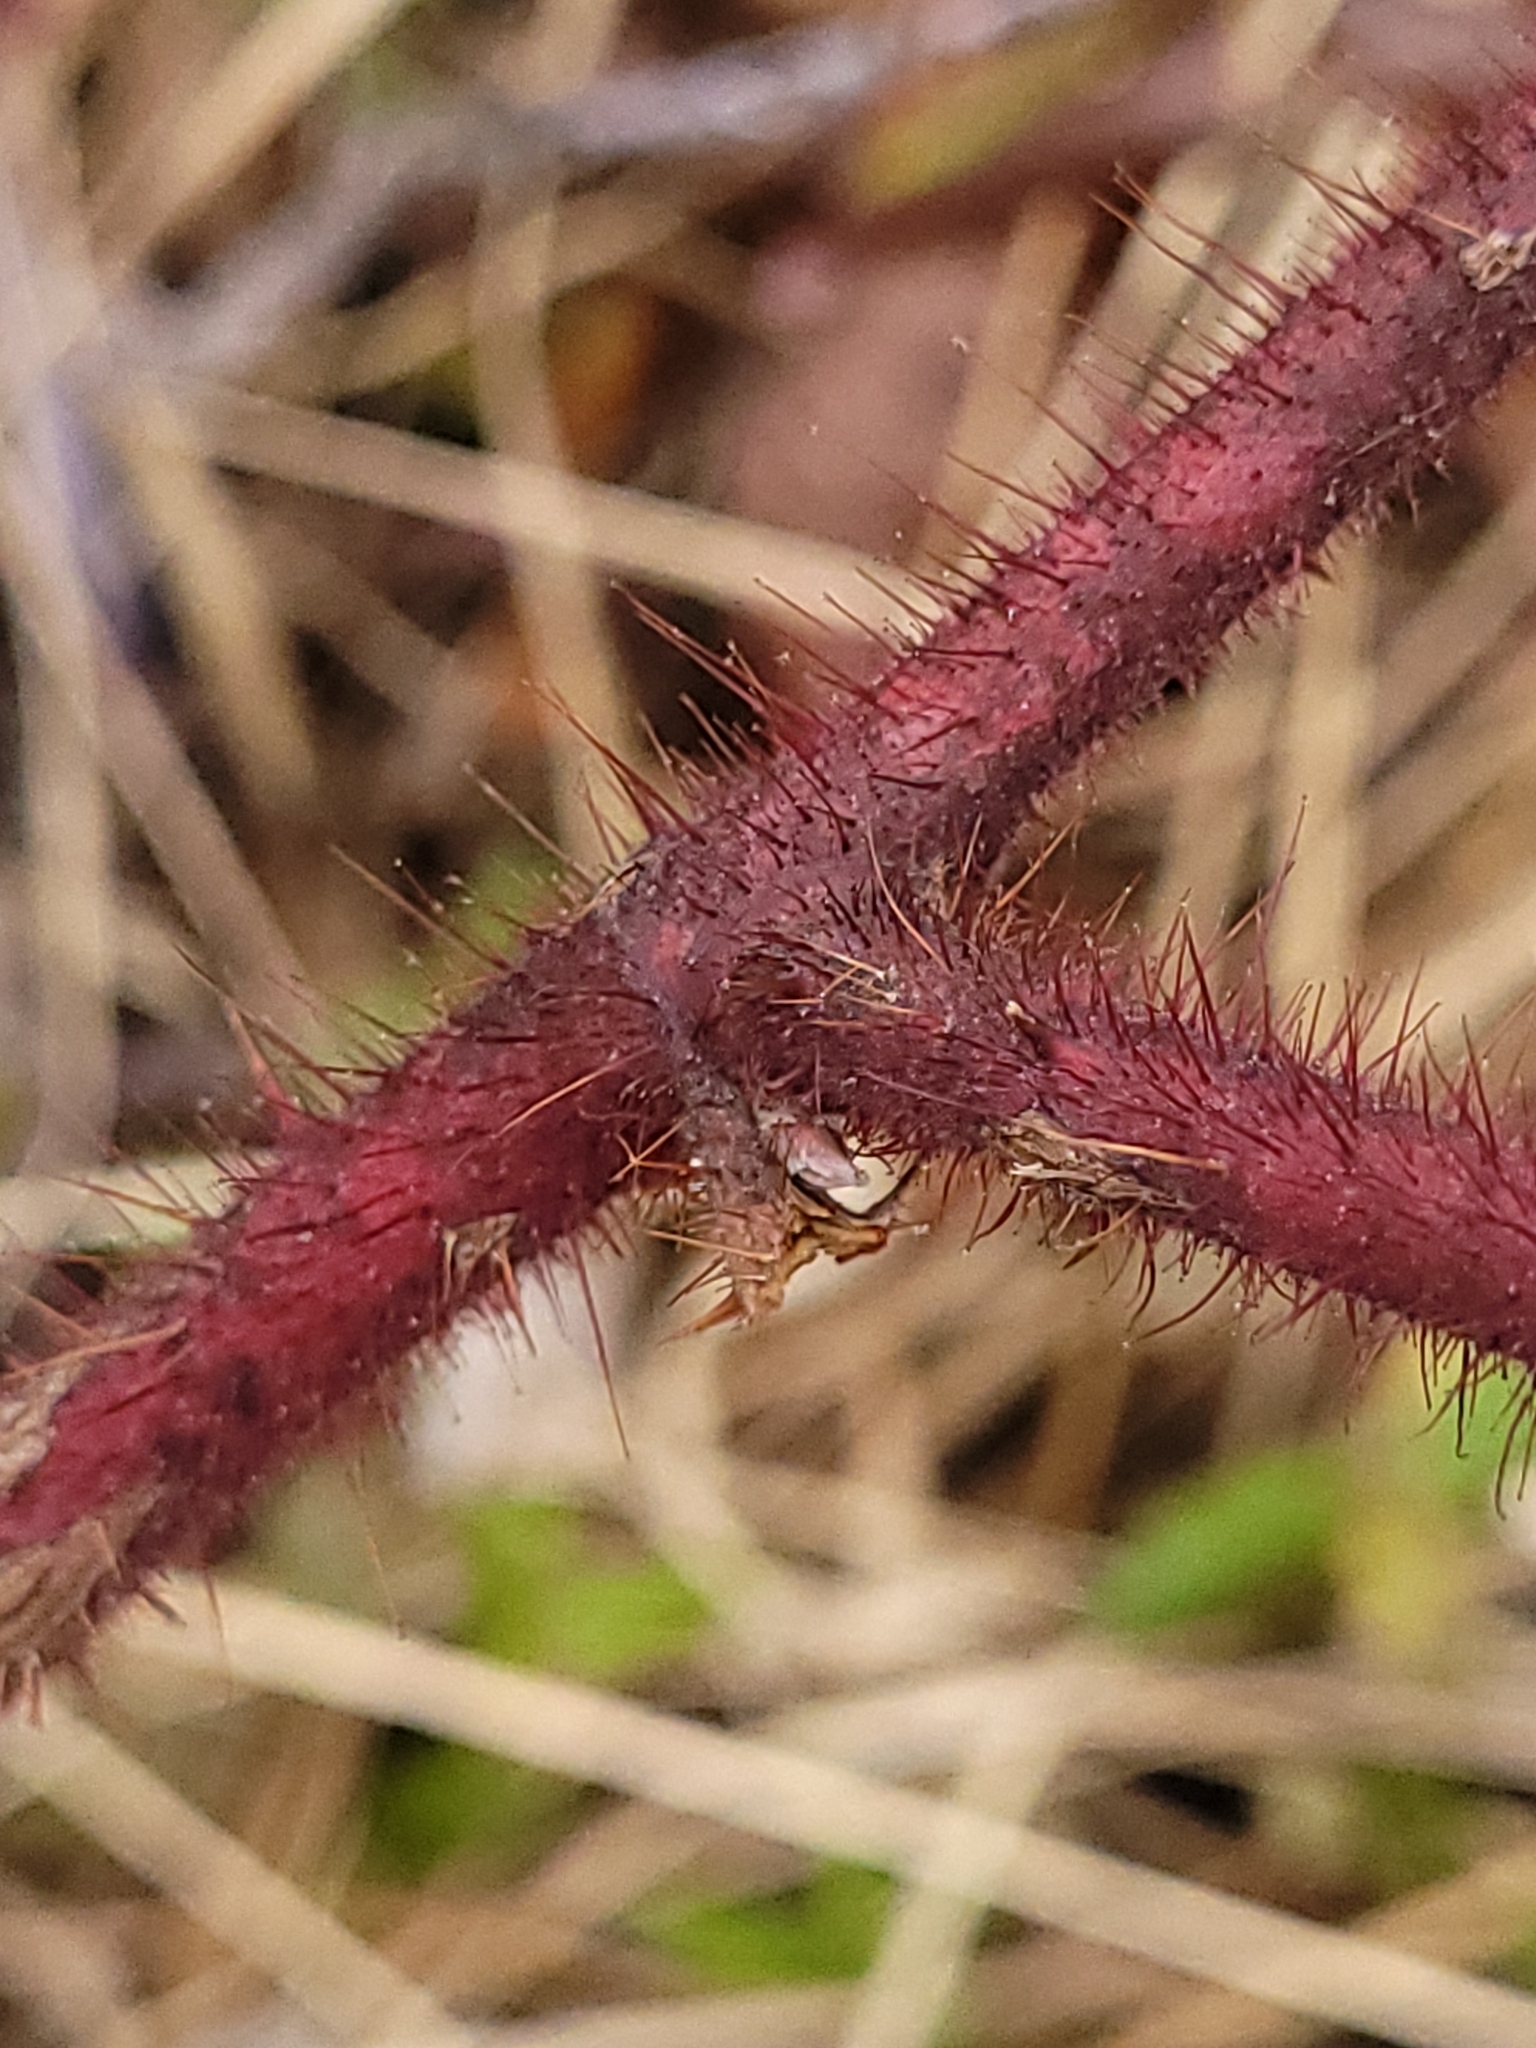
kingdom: Plantae
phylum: Tracheophyta
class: Magnoliopsida
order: Rosales
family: Rosaceae
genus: Rubus
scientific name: Rubus phoenicolasius
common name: Japanese wineberry
